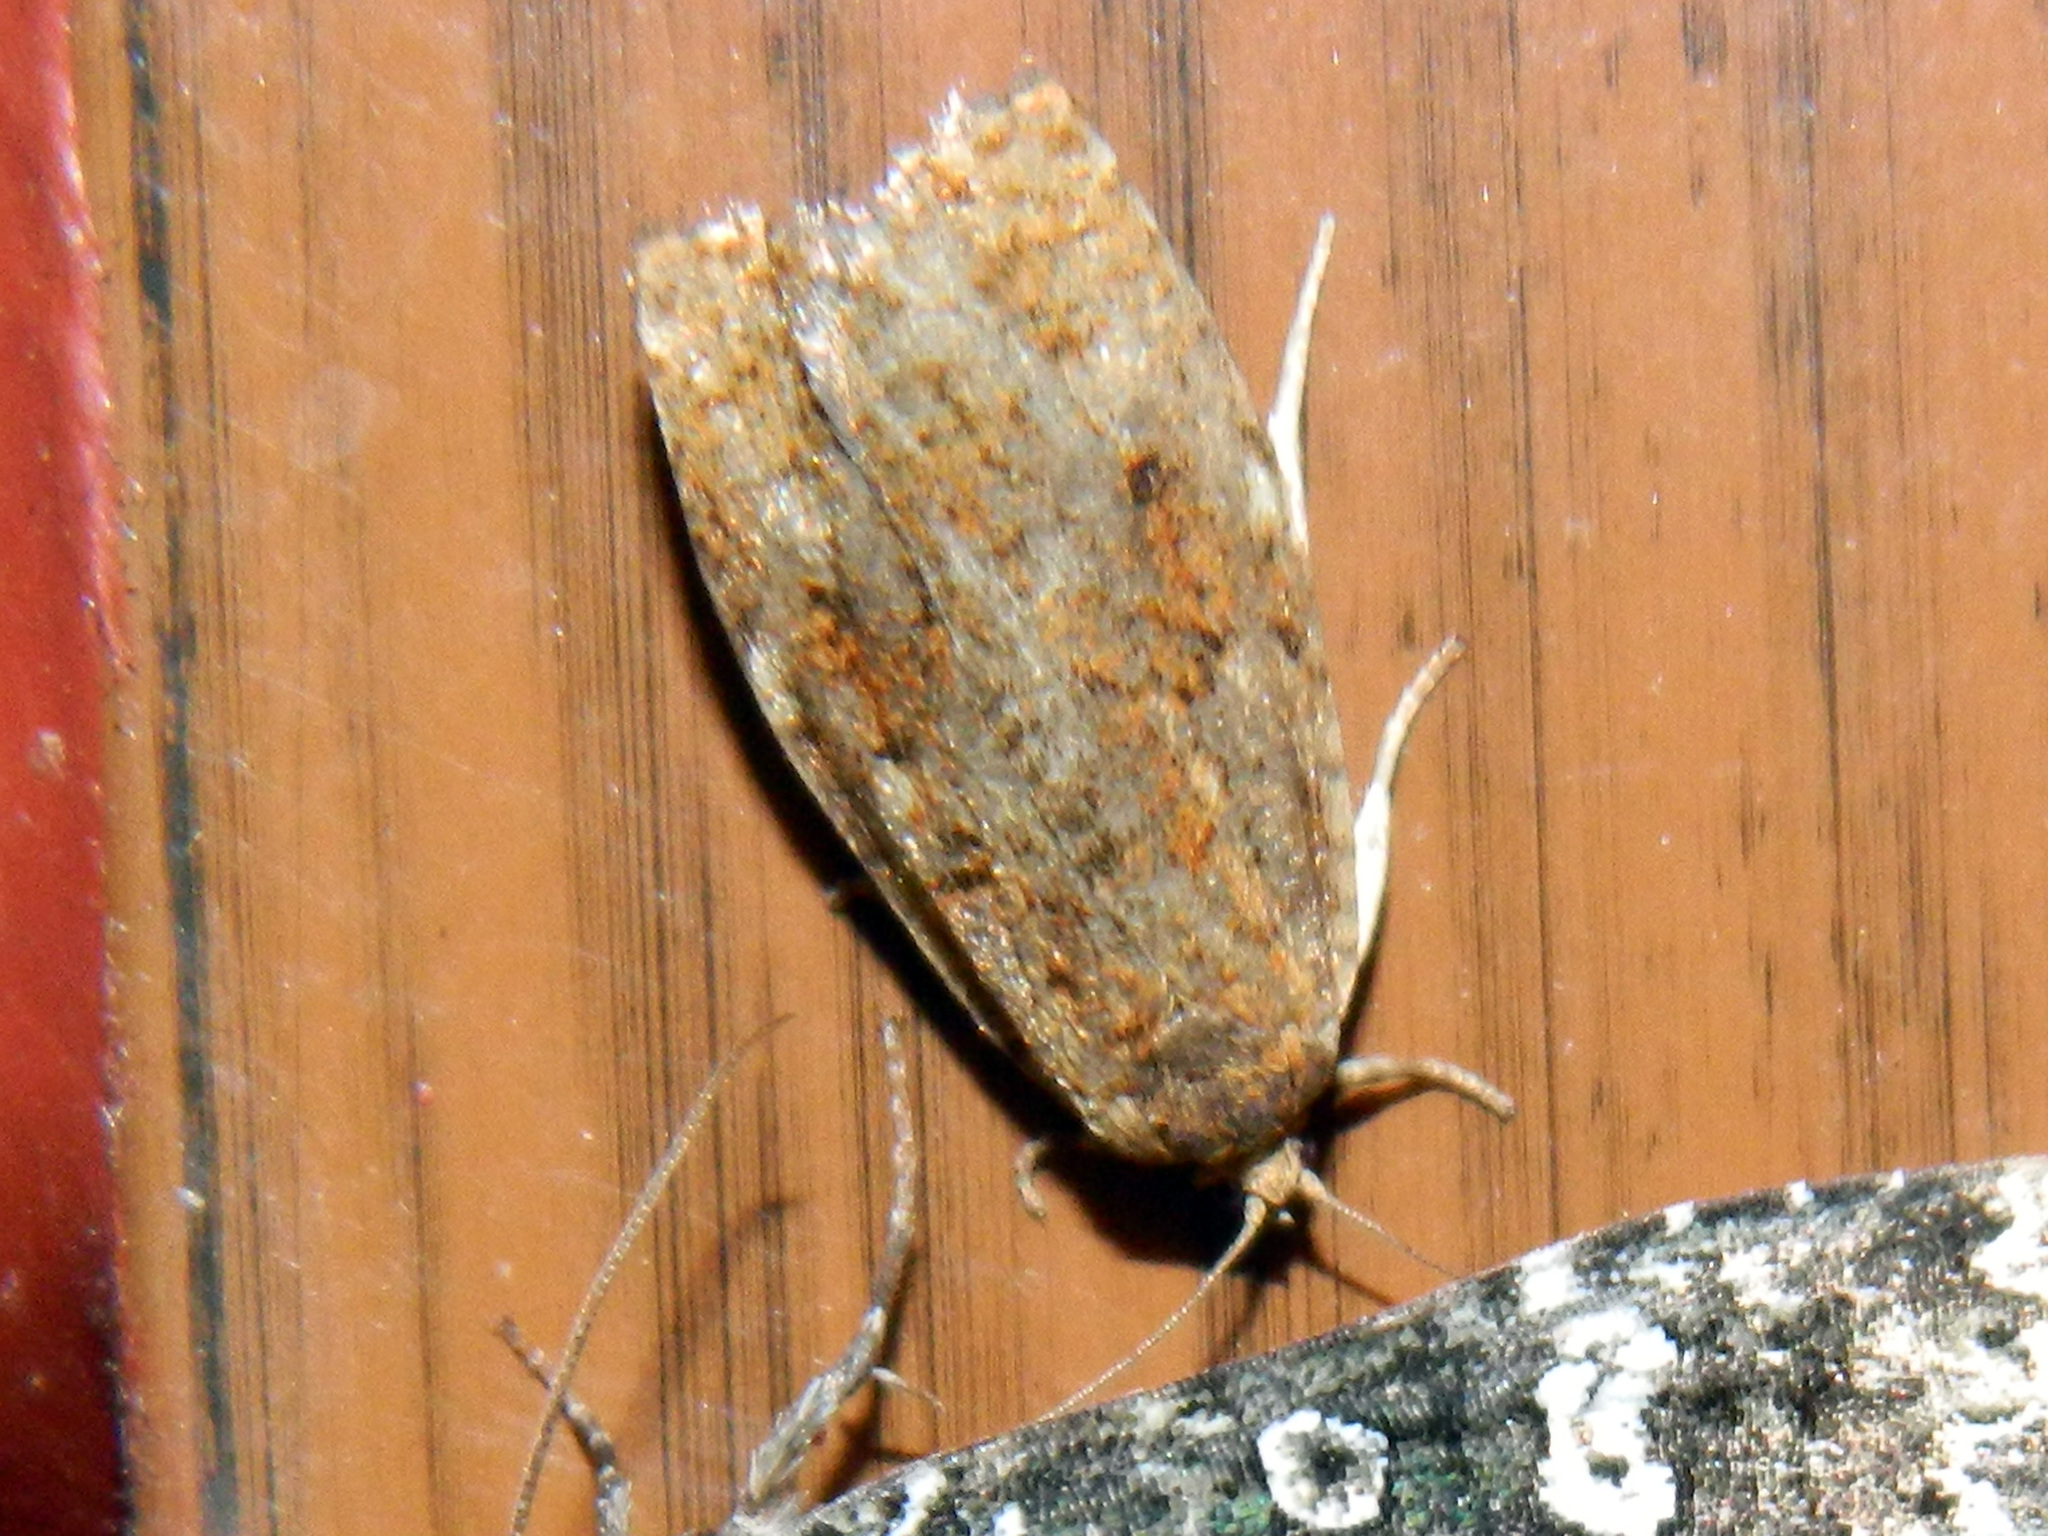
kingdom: Animalia
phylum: Arthropoda
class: Insecta
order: Lepidoptera
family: Tortricidae
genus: Choristoneura
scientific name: Choristoneura fumiferana
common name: Spruce budworm
